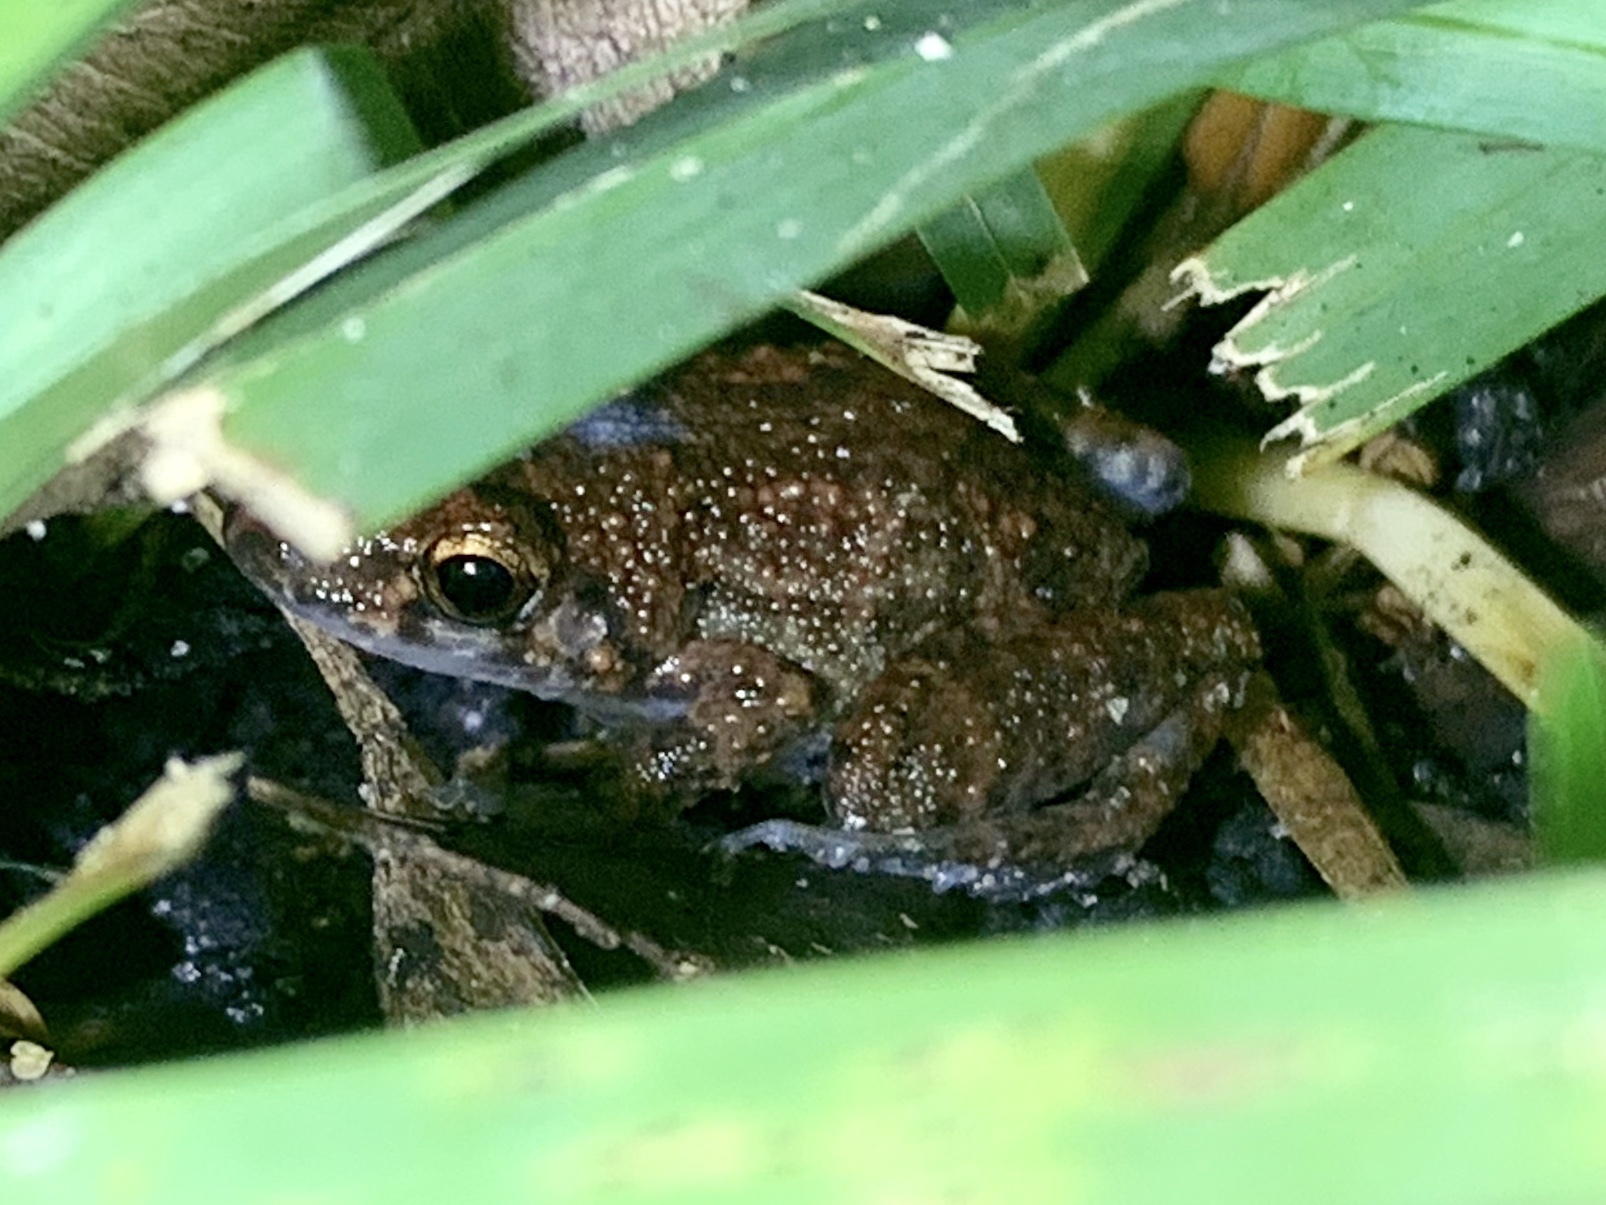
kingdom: Animalia
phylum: Chordata
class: Amphibia
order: Anura
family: Eleutherodactylidae
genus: Eleutherodactylus
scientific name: Eleutherodactylus planirostris
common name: Greenhouse frog
